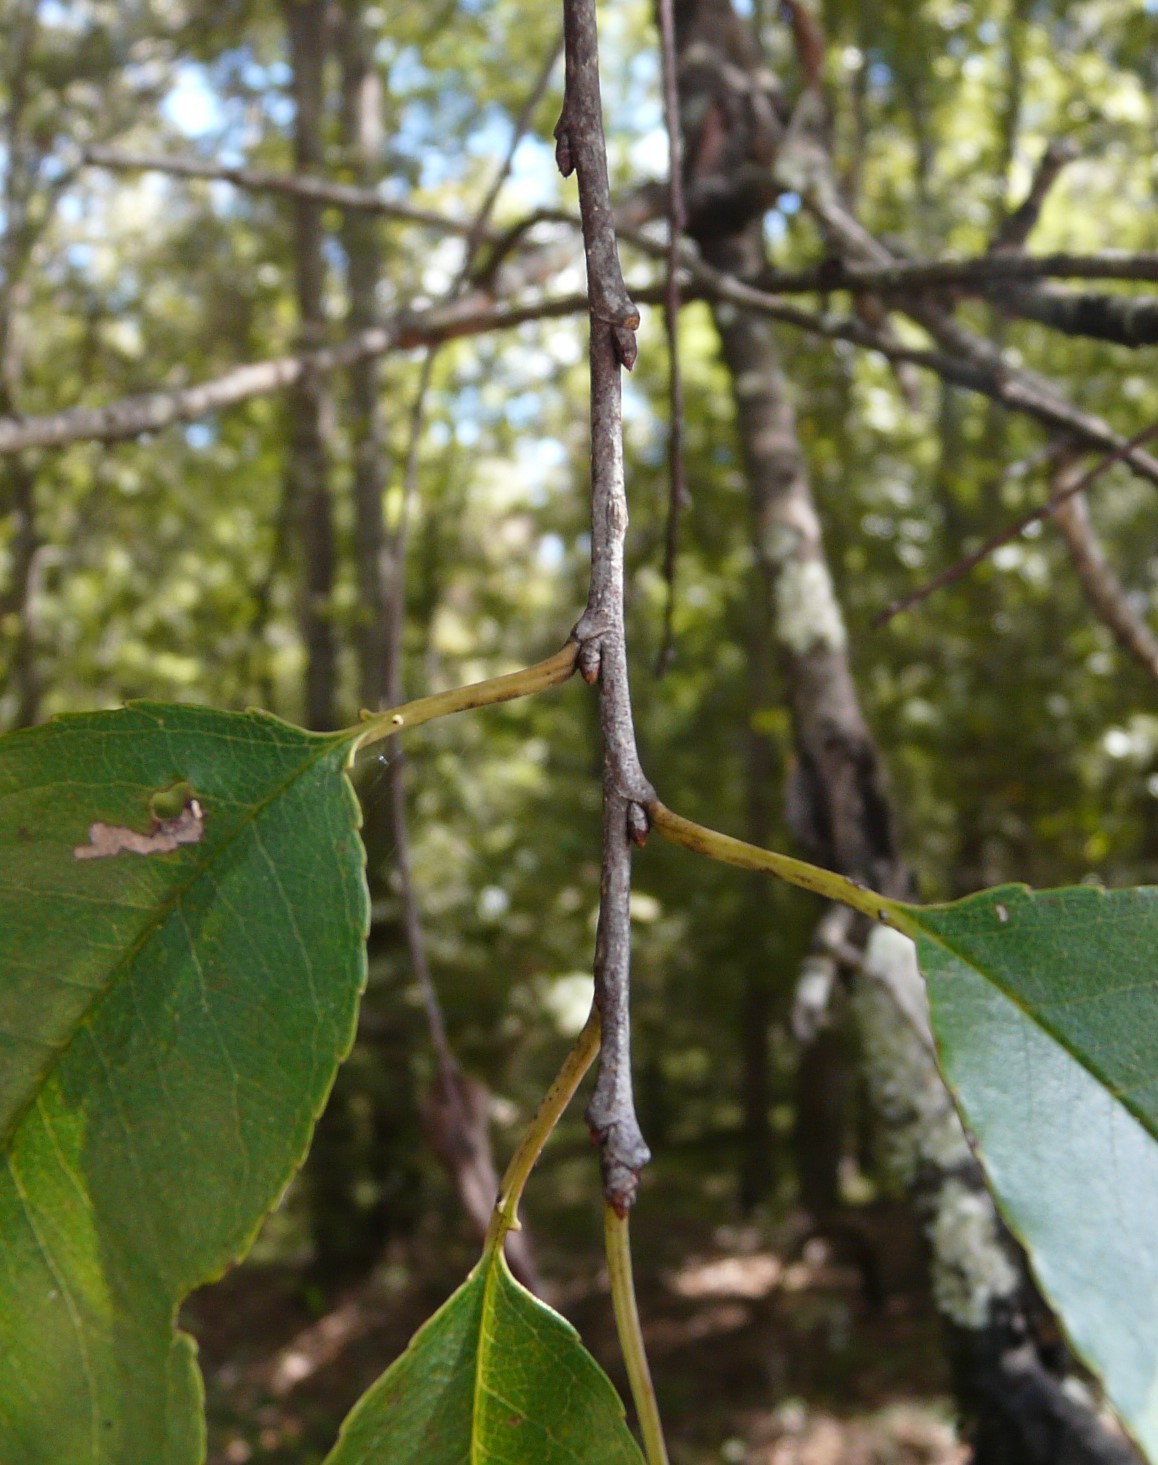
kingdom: Plantae
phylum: Tracheophyta
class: Magnoliopsida
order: Rosales
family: Rosaceae
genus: Prunus
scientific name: Prunus serotina
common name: Black cherry
